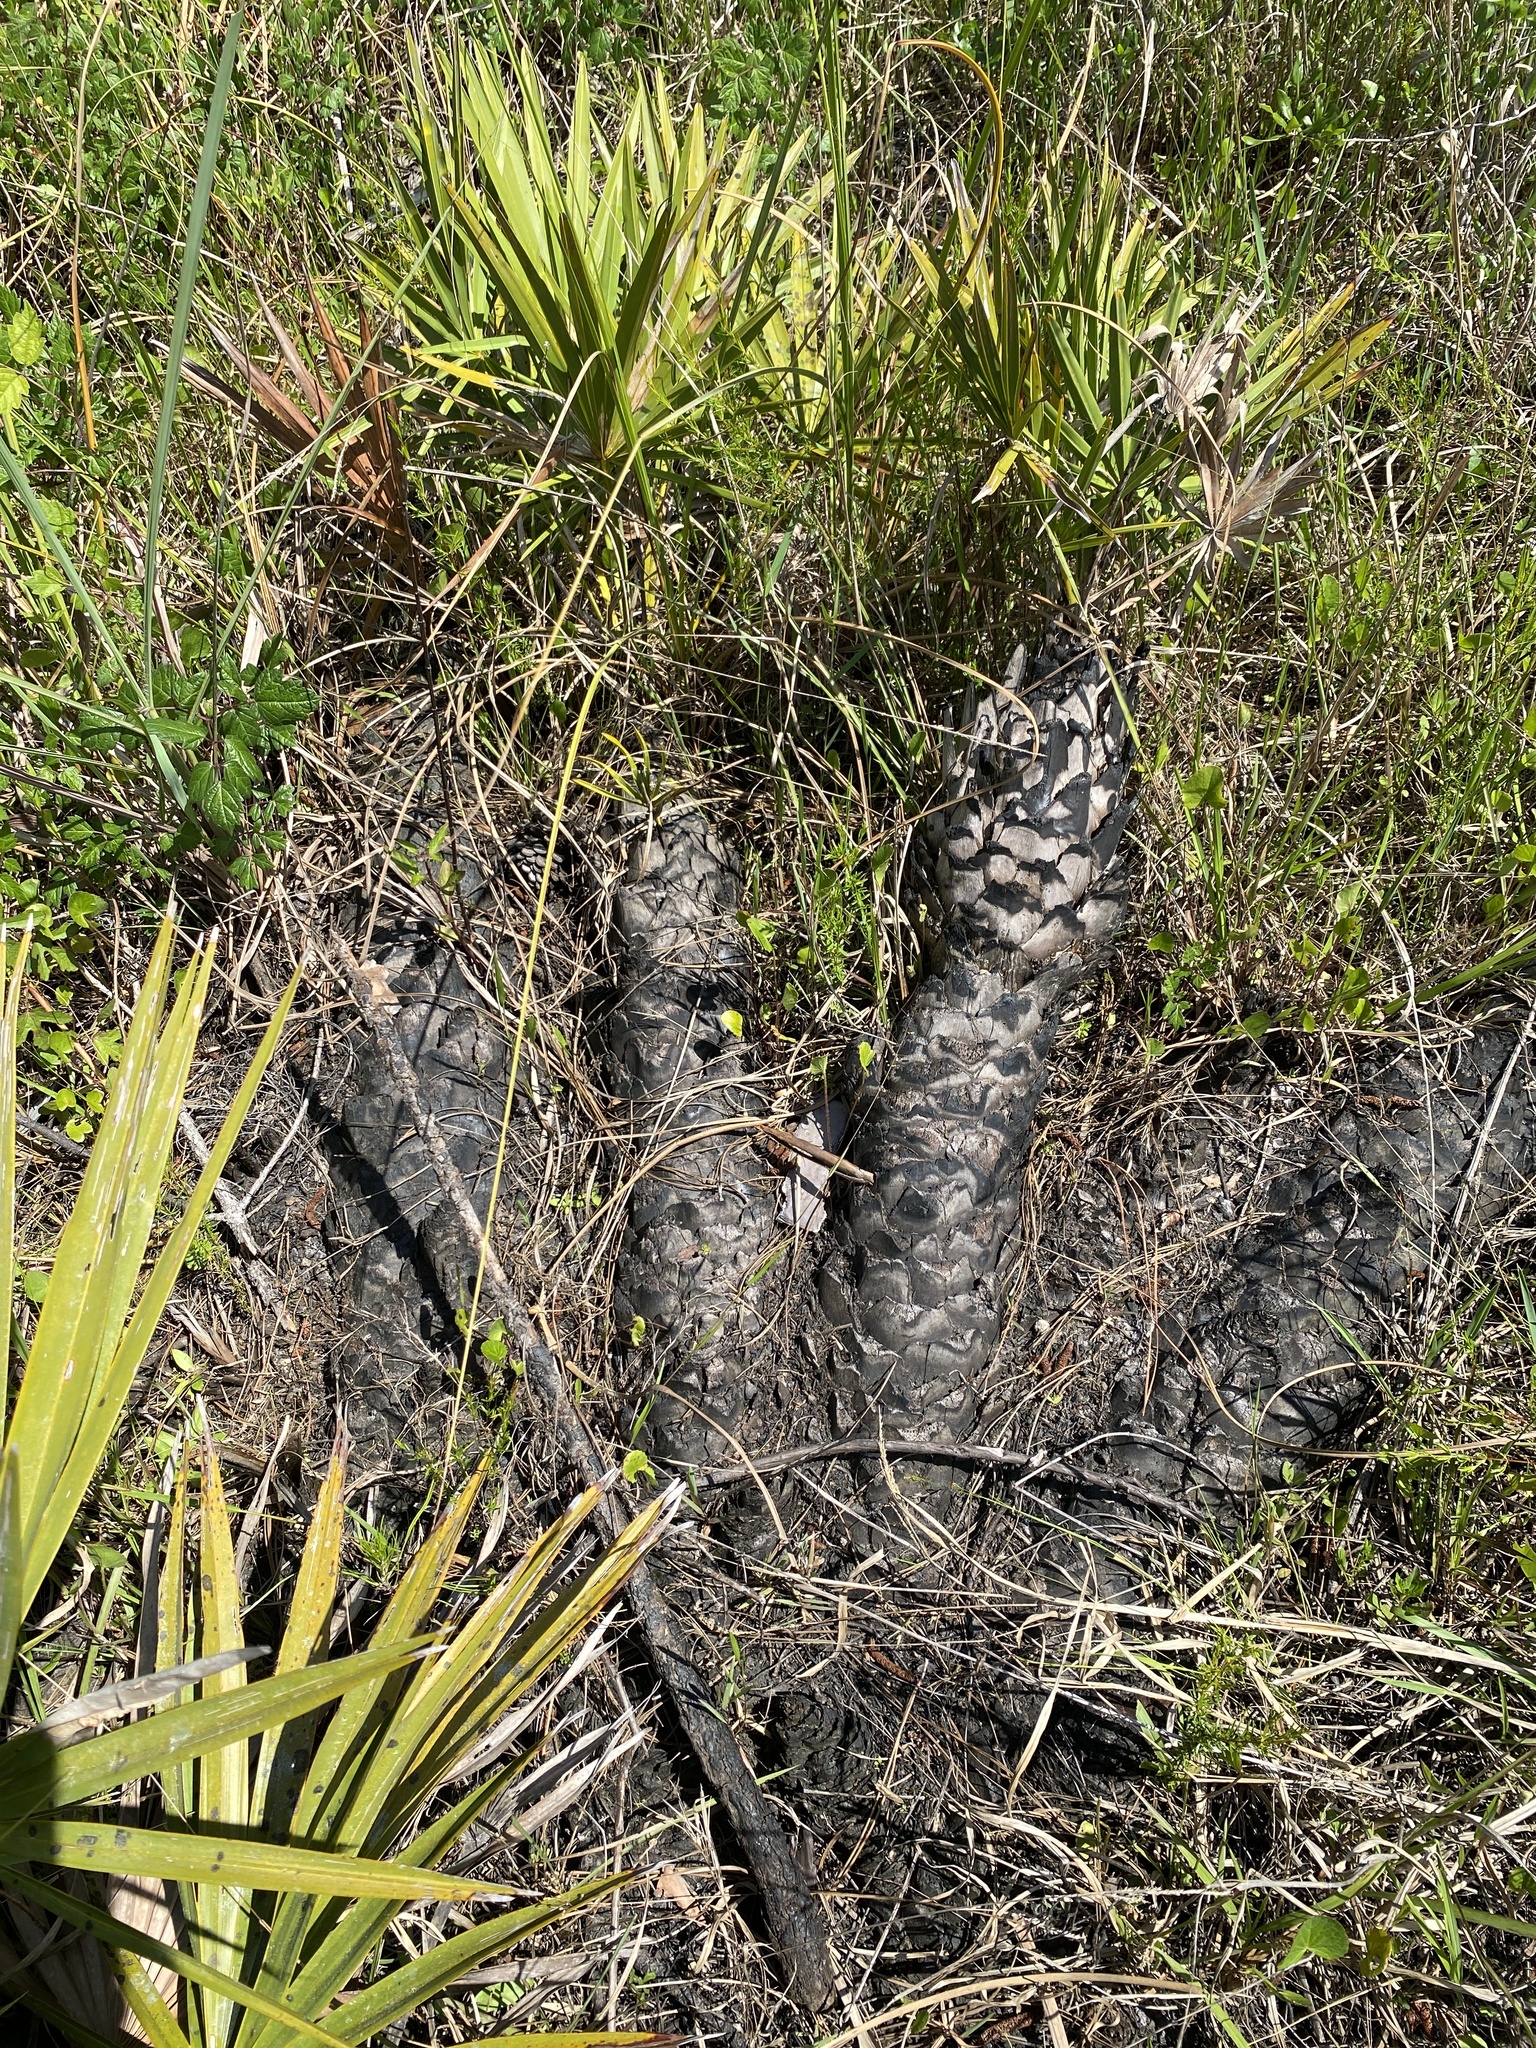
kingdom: Plantae
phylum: Tracheophyta
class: Liliopsida
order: Arecales
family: Arecaceae
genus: Serenoa
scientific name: Serenoa repens
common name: Saw-palmetto
